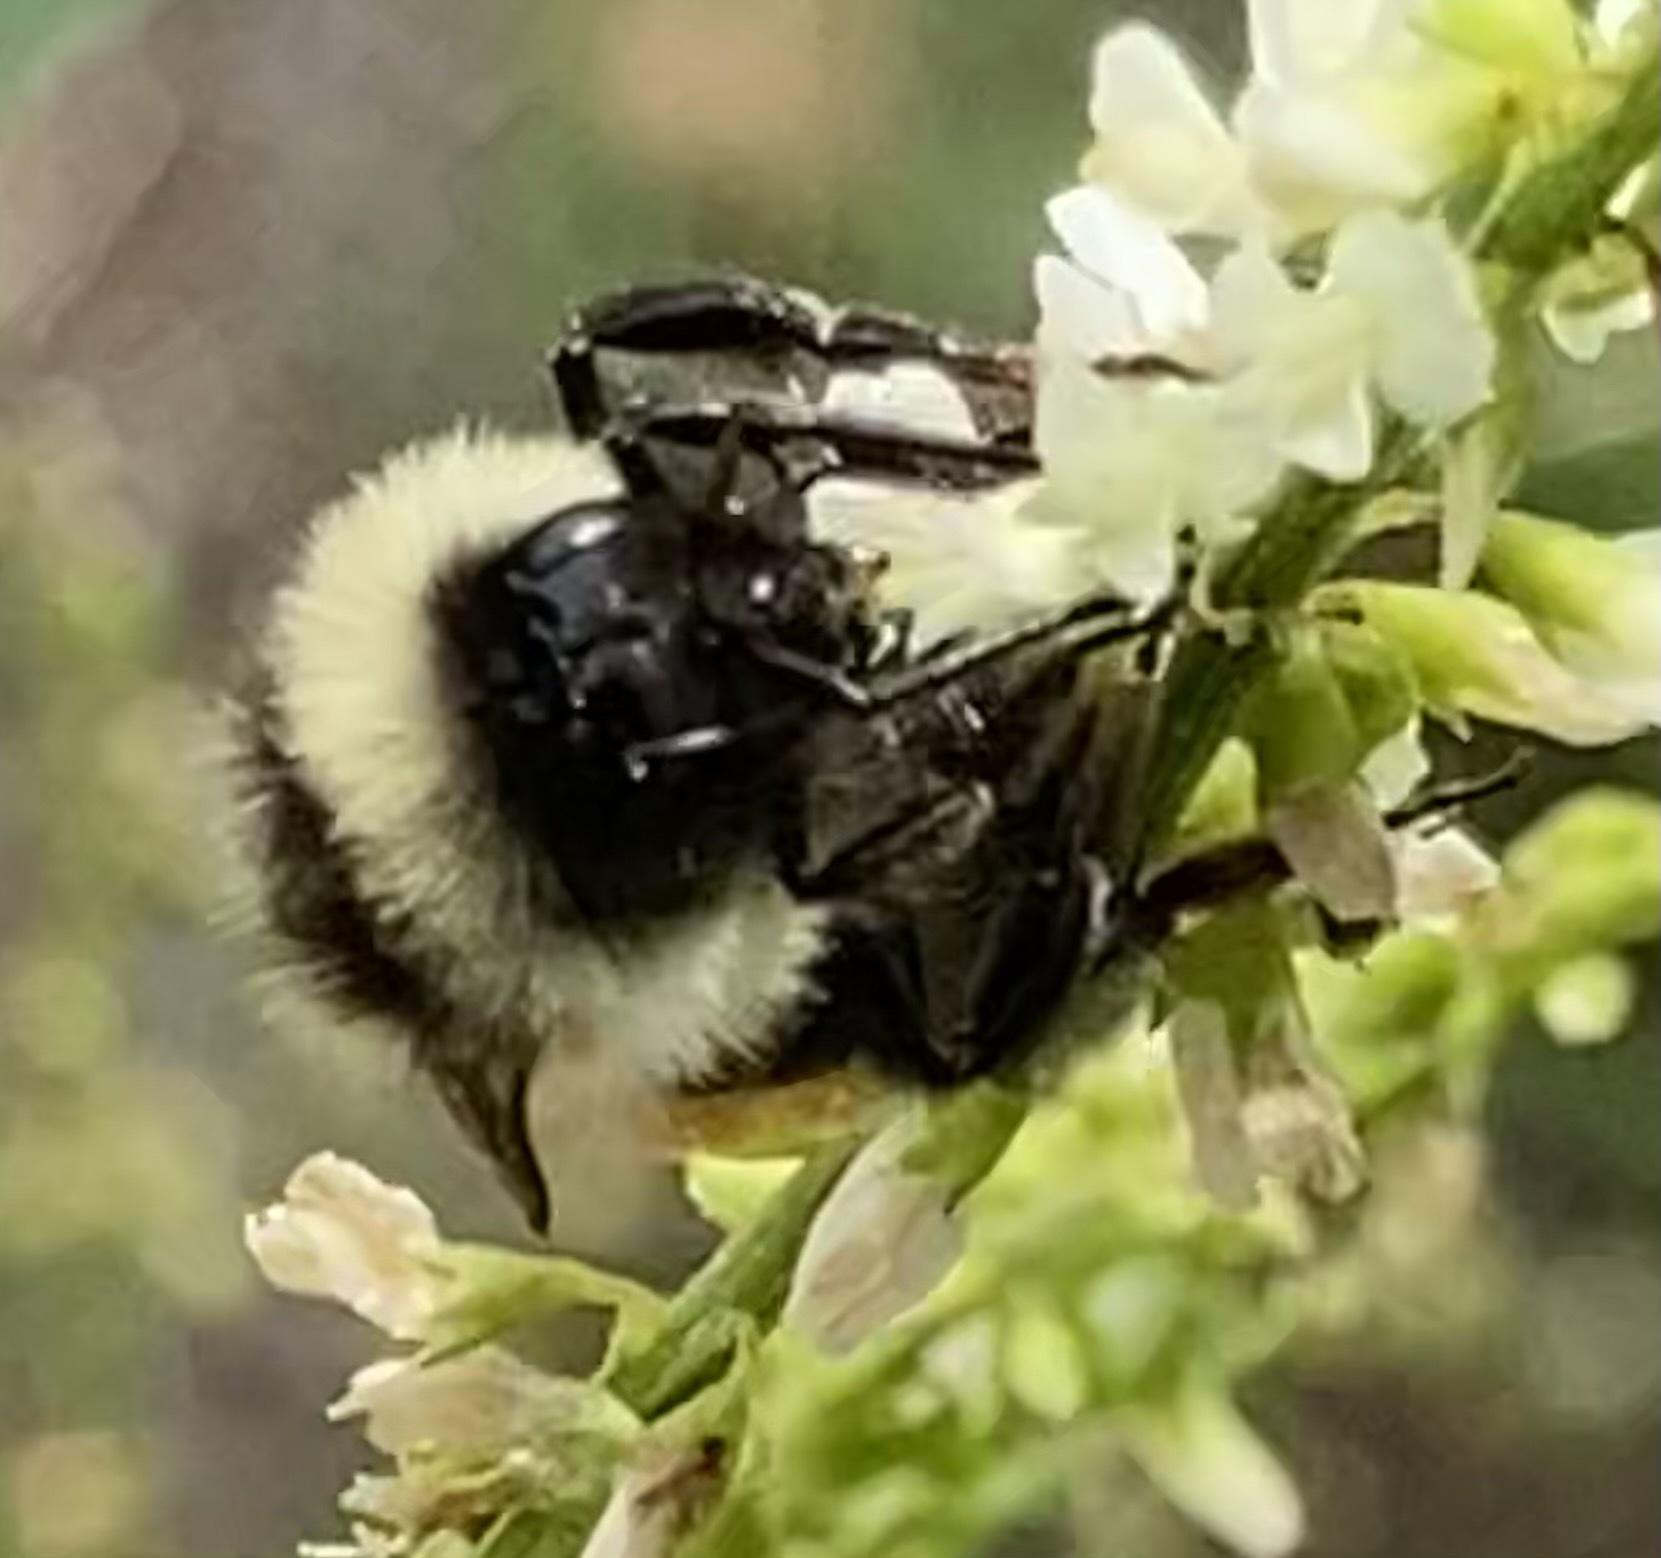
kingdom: Animalia
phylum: Arthropoda
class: Insecta
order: Hymenoptera
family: Apidae
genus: Bombus
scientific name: Bombus ternarius
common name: Tri-colored bumble bee
